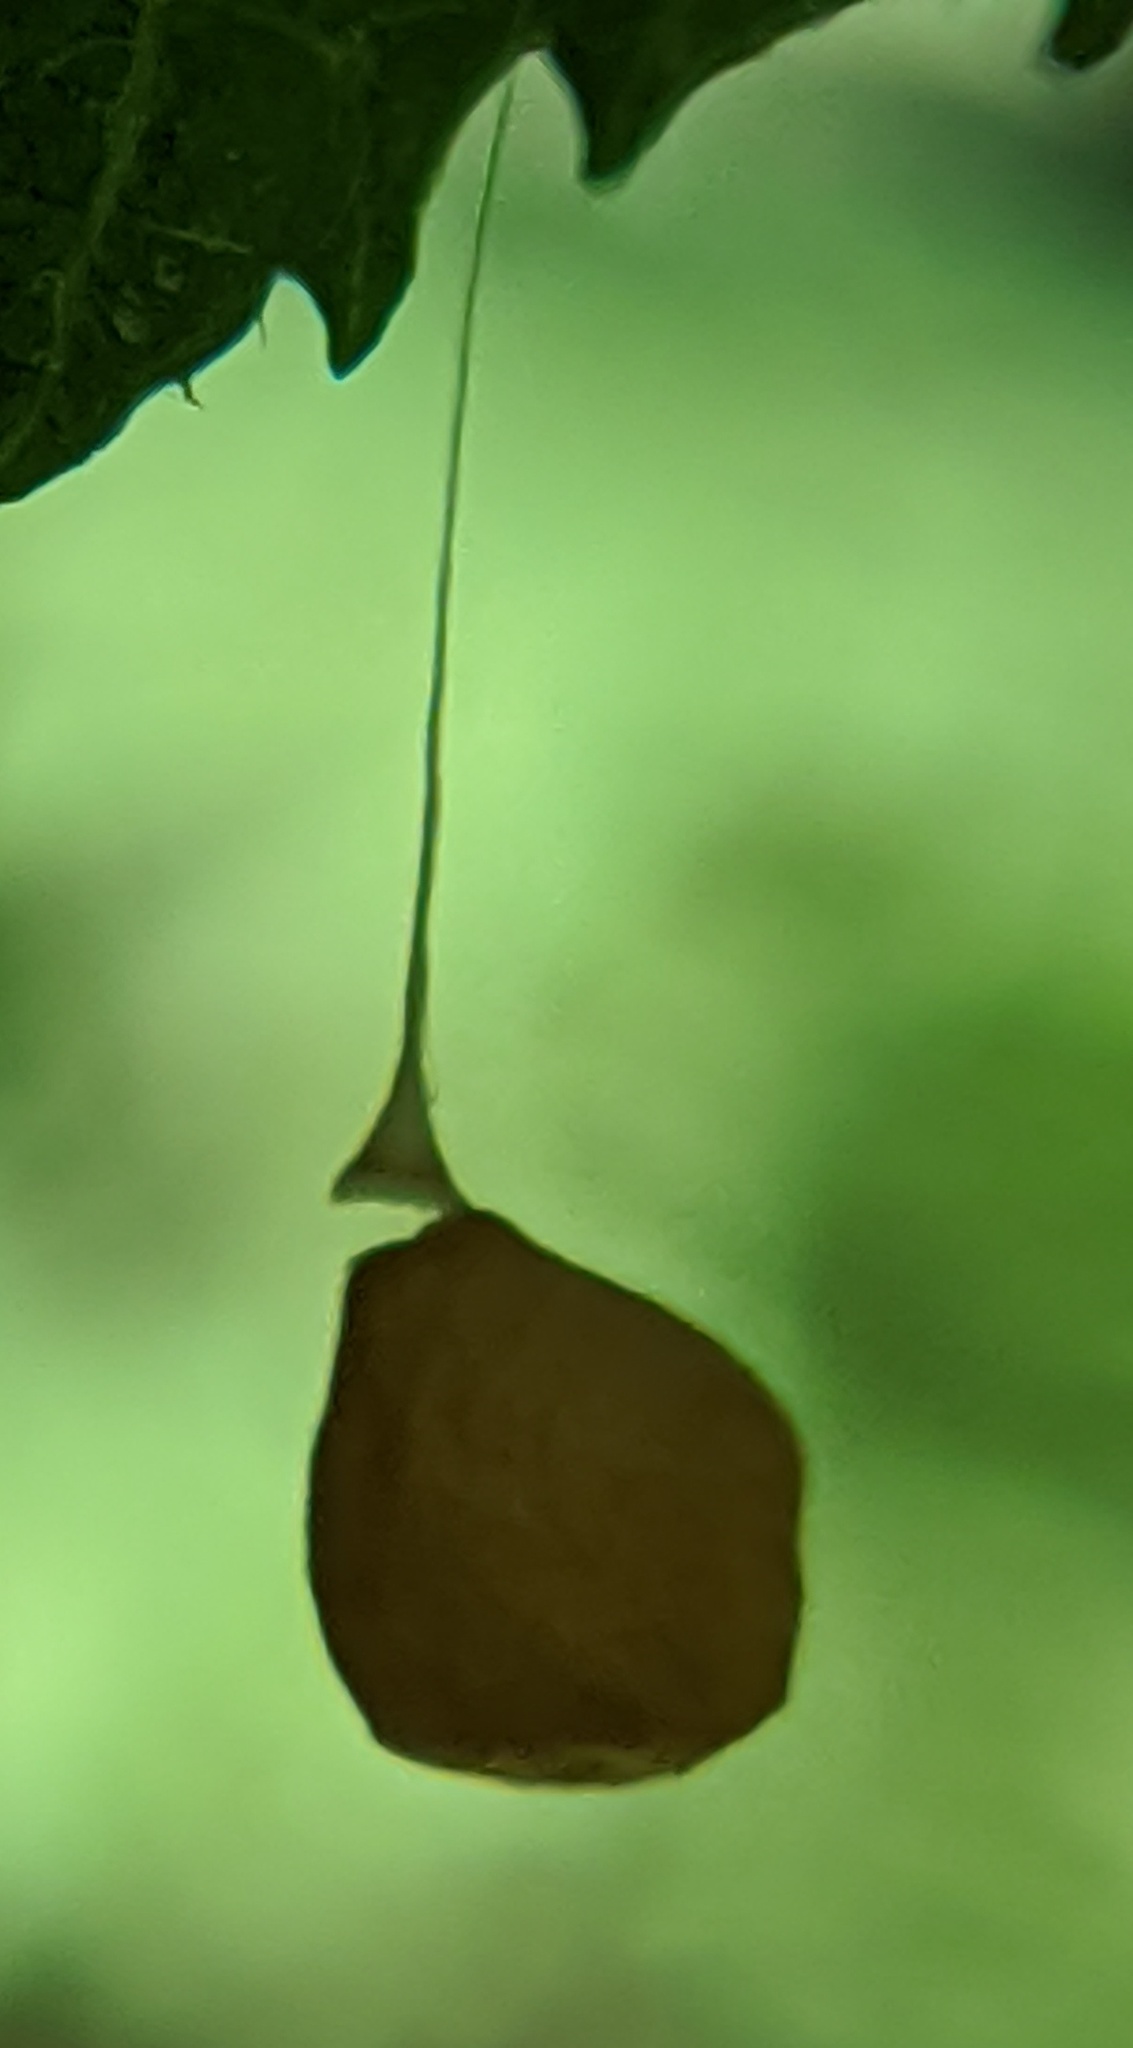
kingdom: Animalia
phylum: Arthropoda
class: Arachnida
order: Araneae
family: Theridiosomatidae
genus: Theridiosoma
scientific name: Theridiosoma gemmosum
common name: Ray spider
